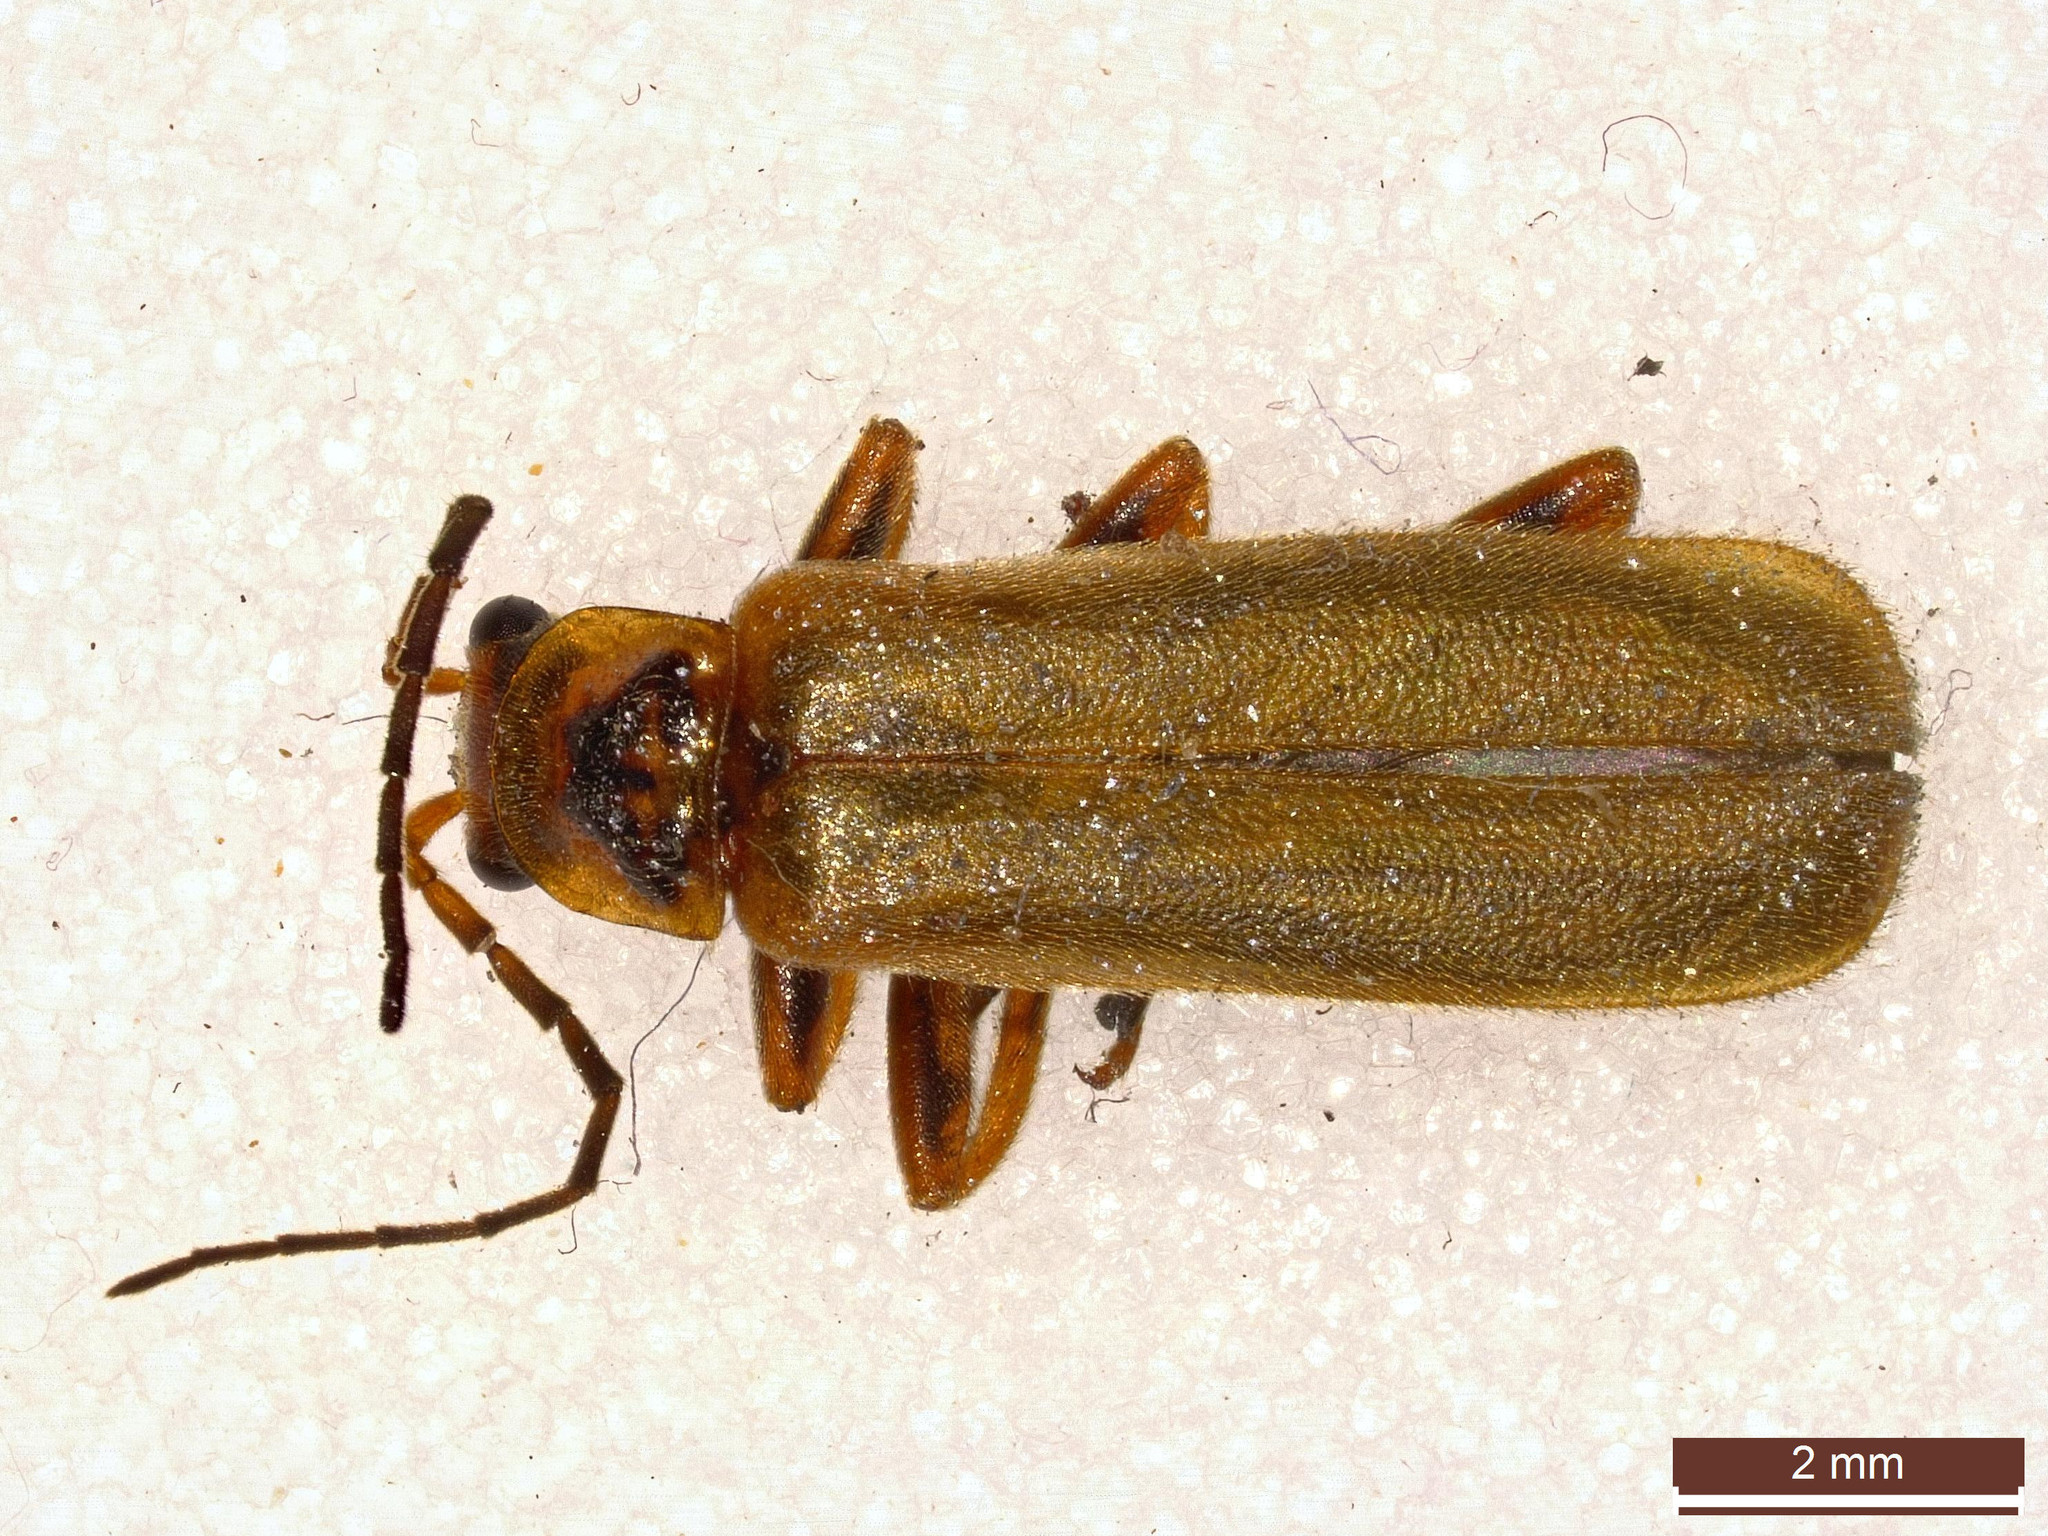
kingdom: Animalia
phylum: Arthropoda
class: Insecta
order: Coleoptera
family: Cantharidae
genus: Cantharis
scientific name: Cantharis figurata
